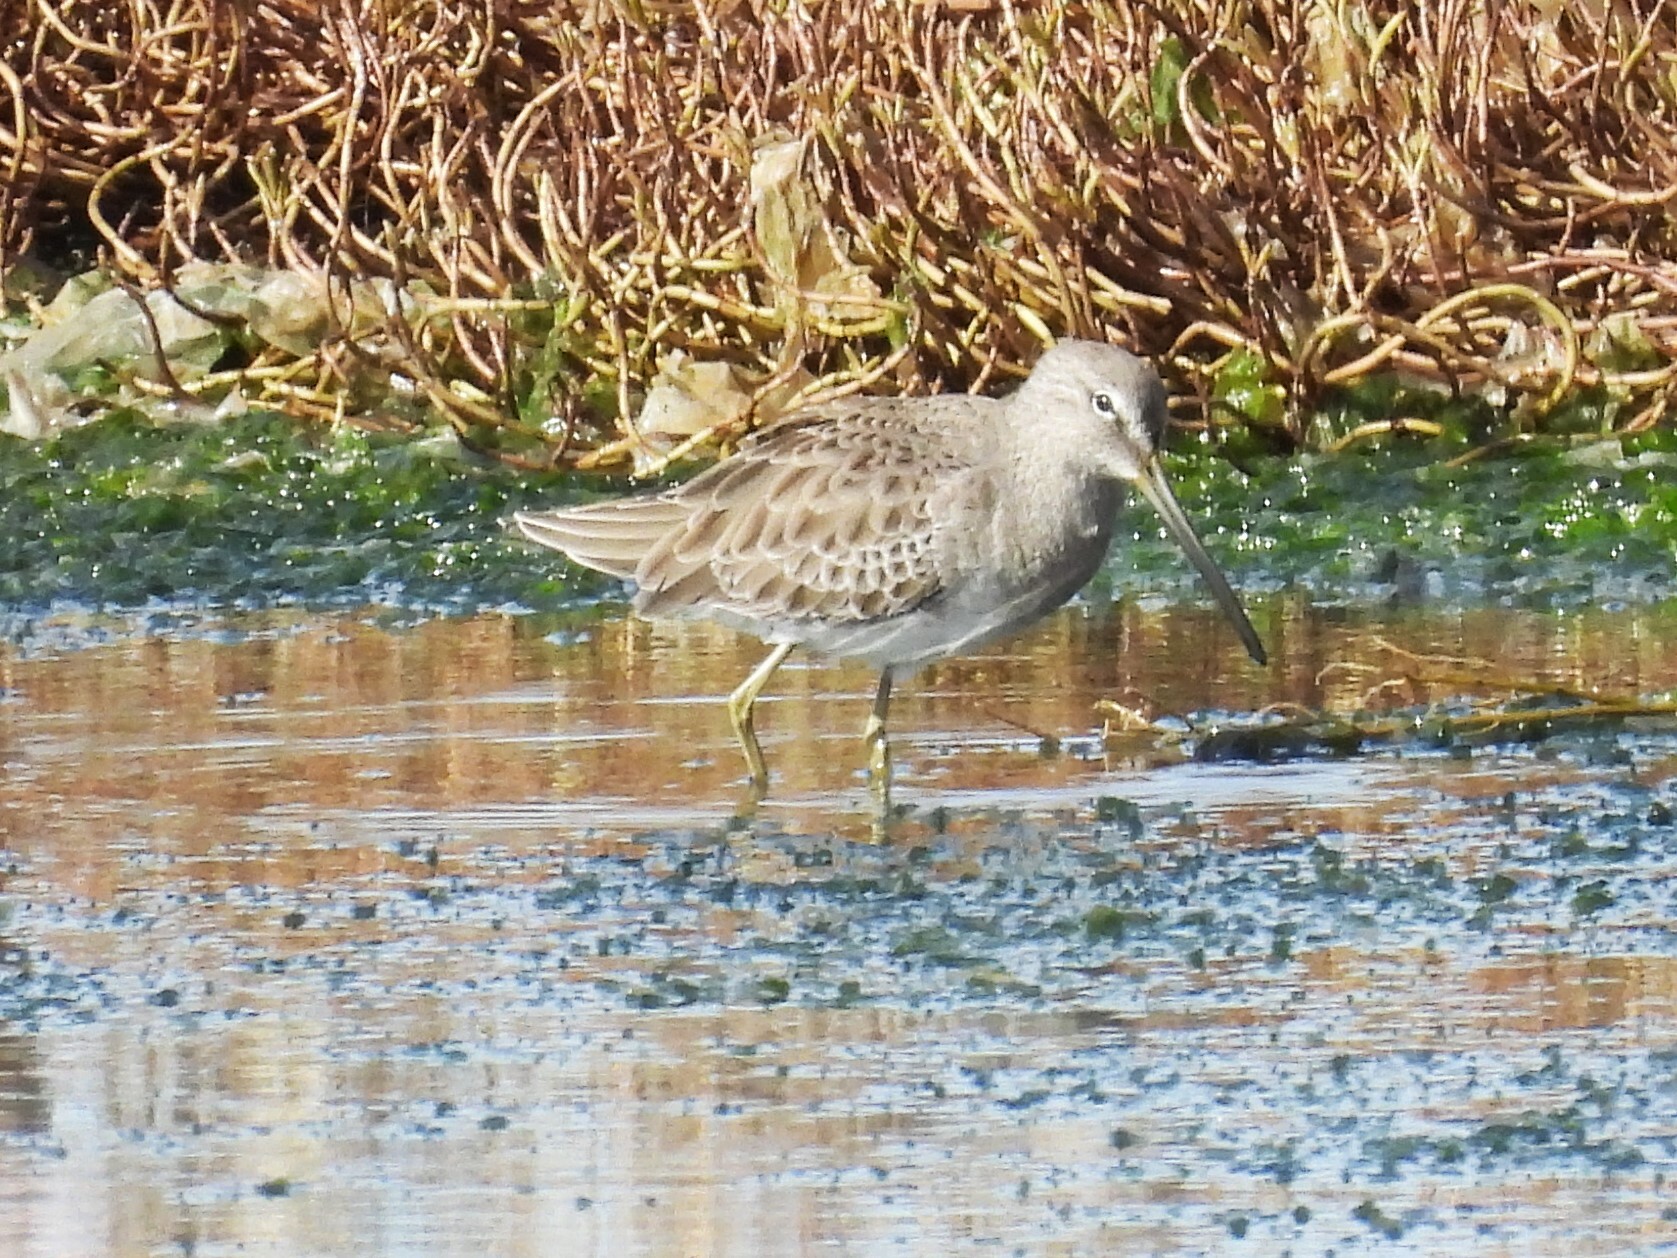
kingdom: Animalia
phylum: Chordata
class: Aves
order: Charadriiformes
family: Scolopacidae
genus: Limnodromus
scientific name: Limnodromus scolopaceus
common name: Long-billed dowitcher
